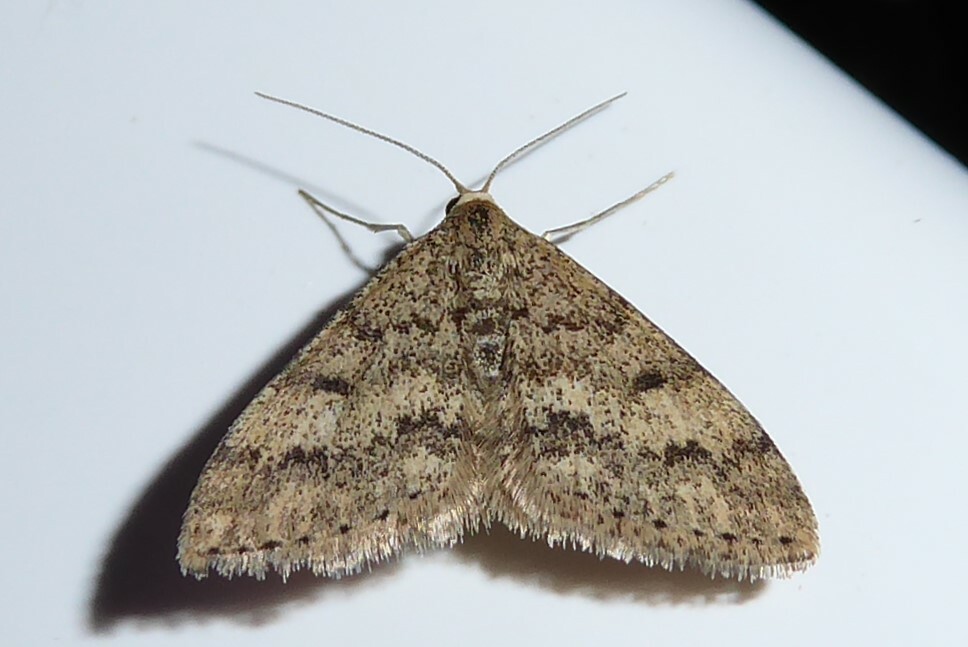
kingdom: Animalia
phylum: Arthropoda
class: Insecta
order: Lepidoptera
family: Geometridae
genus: Scopula
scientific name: Scopula rubraria
